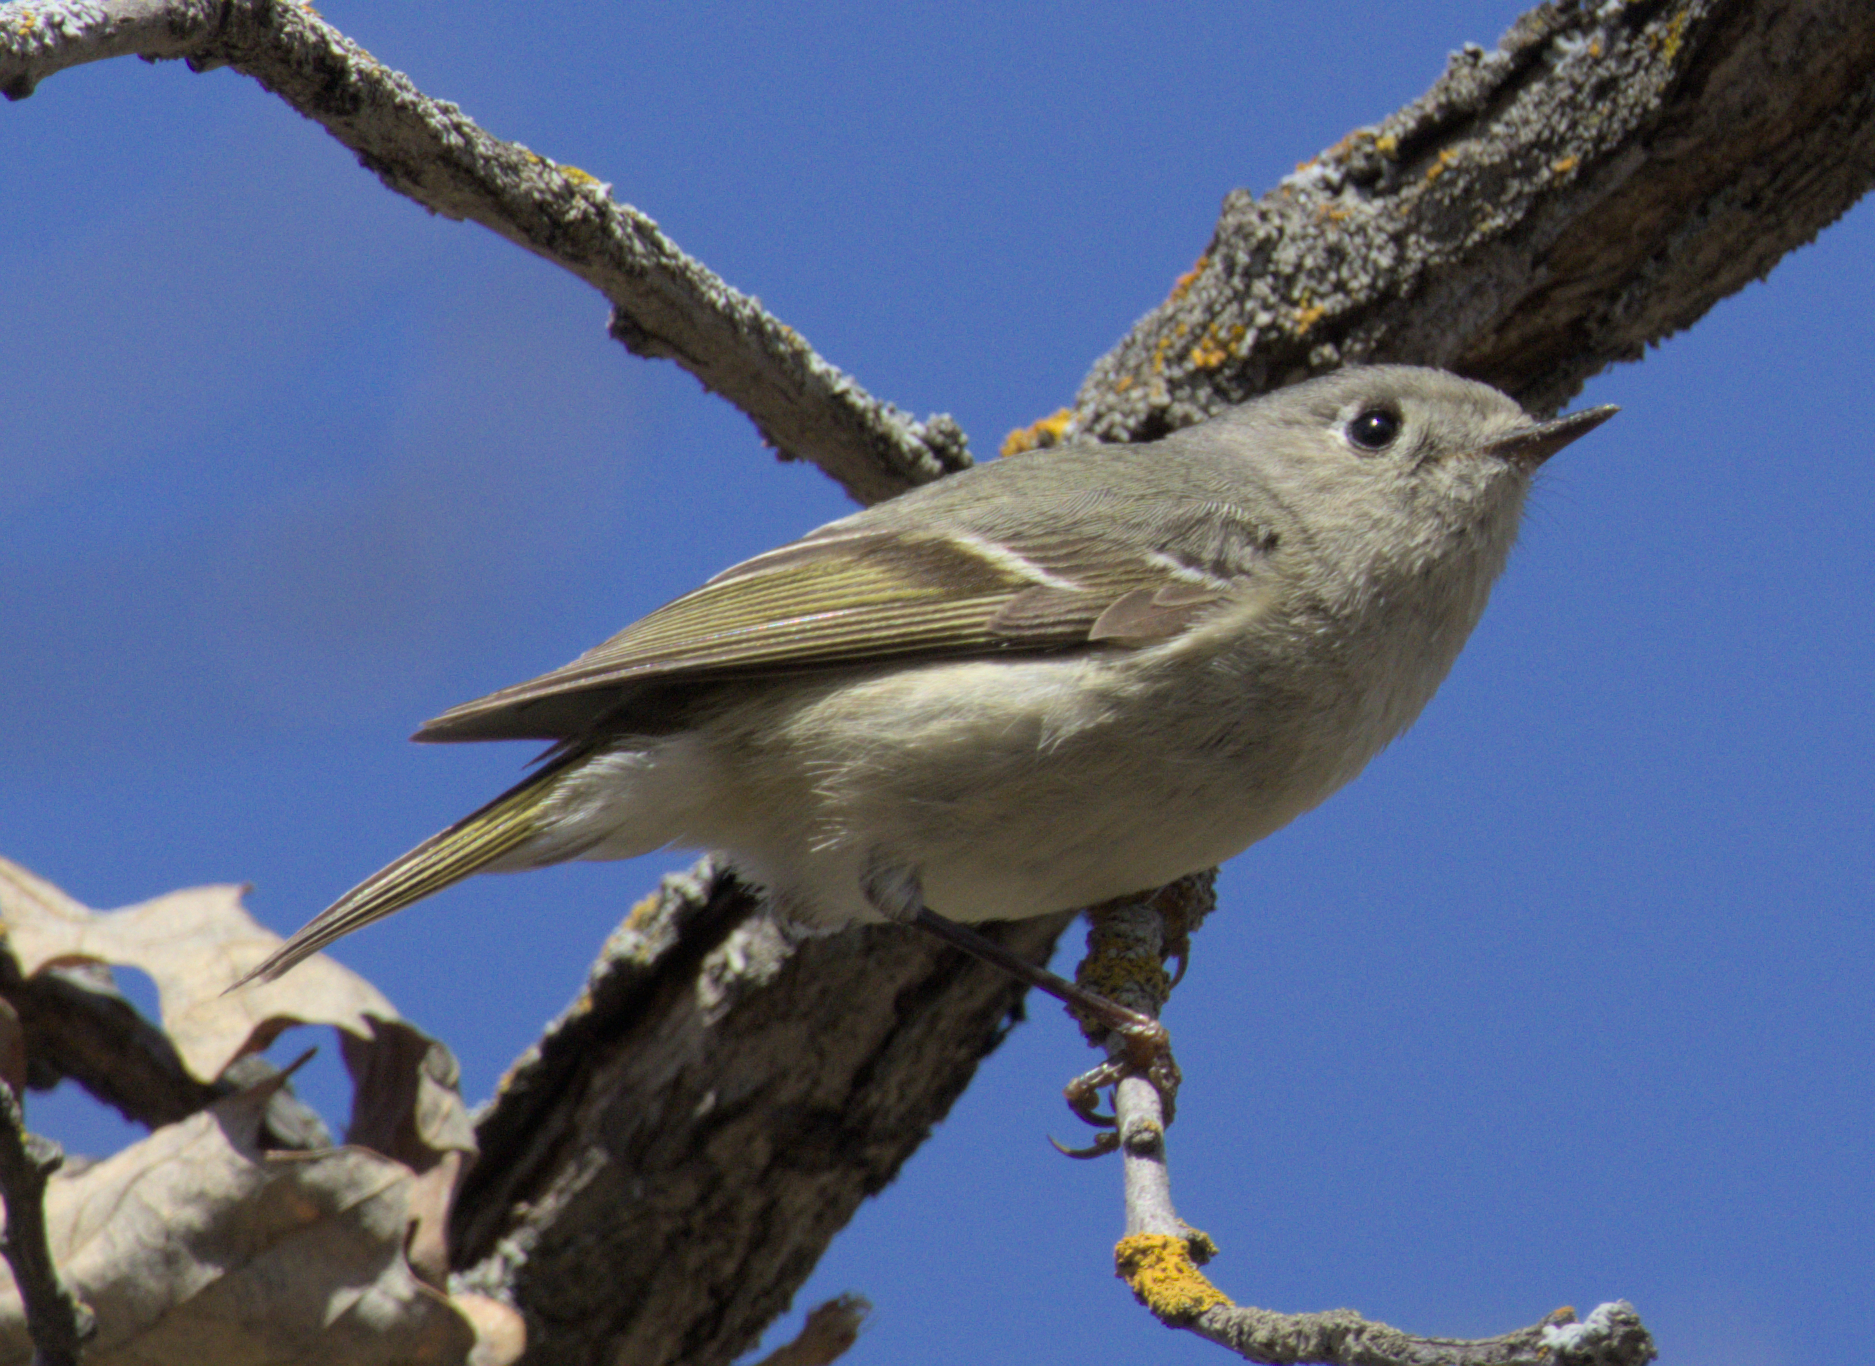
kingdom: Animalia
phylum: Chordata
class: Aves
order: Passeriformes
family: Regulidae
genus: Regulus
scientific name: Regulus calendula
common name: Ruby-crowned kinglet
